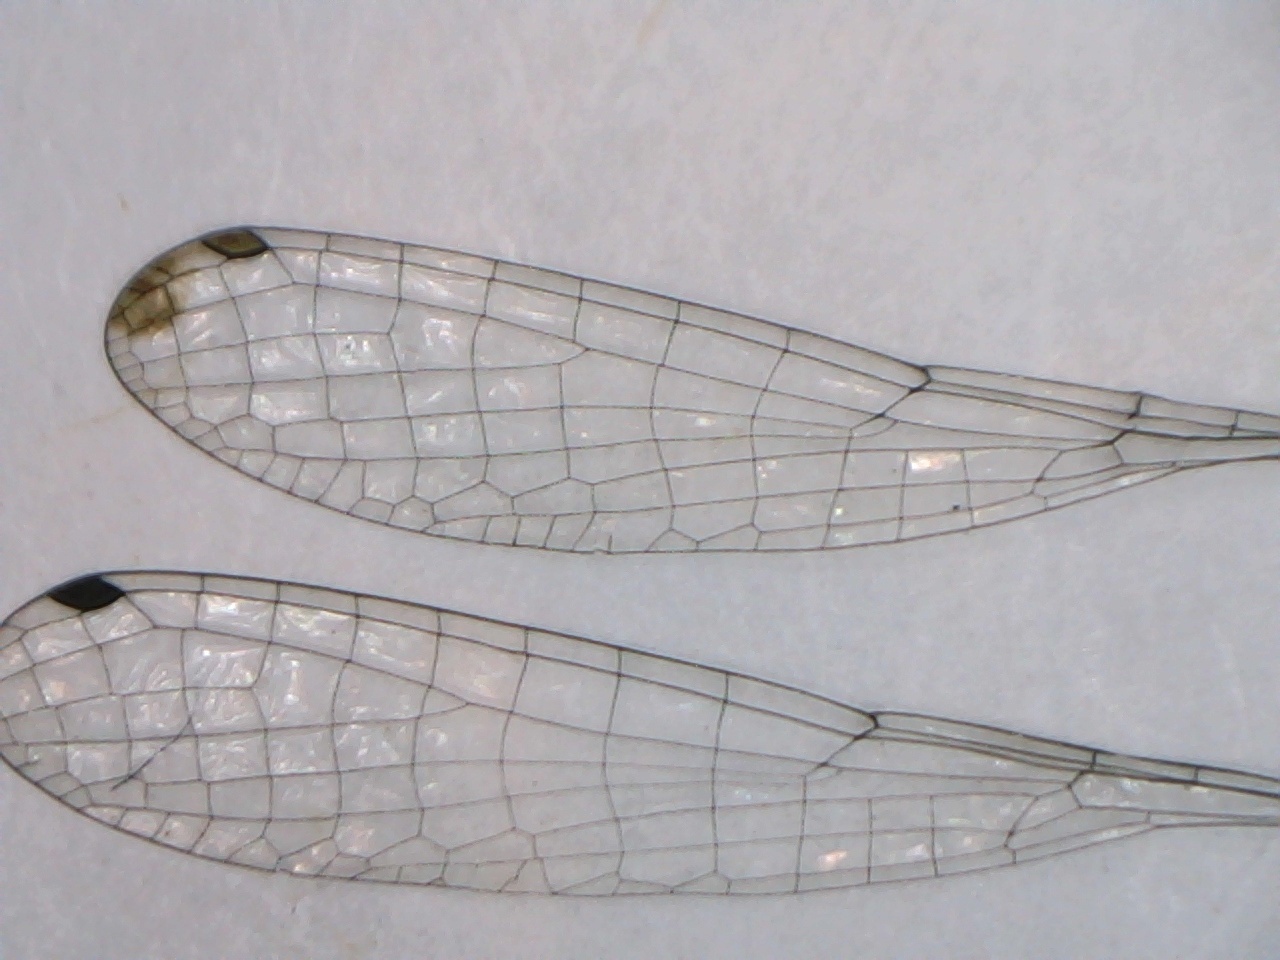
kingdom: Animalia
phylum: Arthropoda
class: Insecta
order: Odonata
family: Coenagrionidae
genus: Ischnura
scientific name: Ischnura verticalis
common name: Eastern forktail
